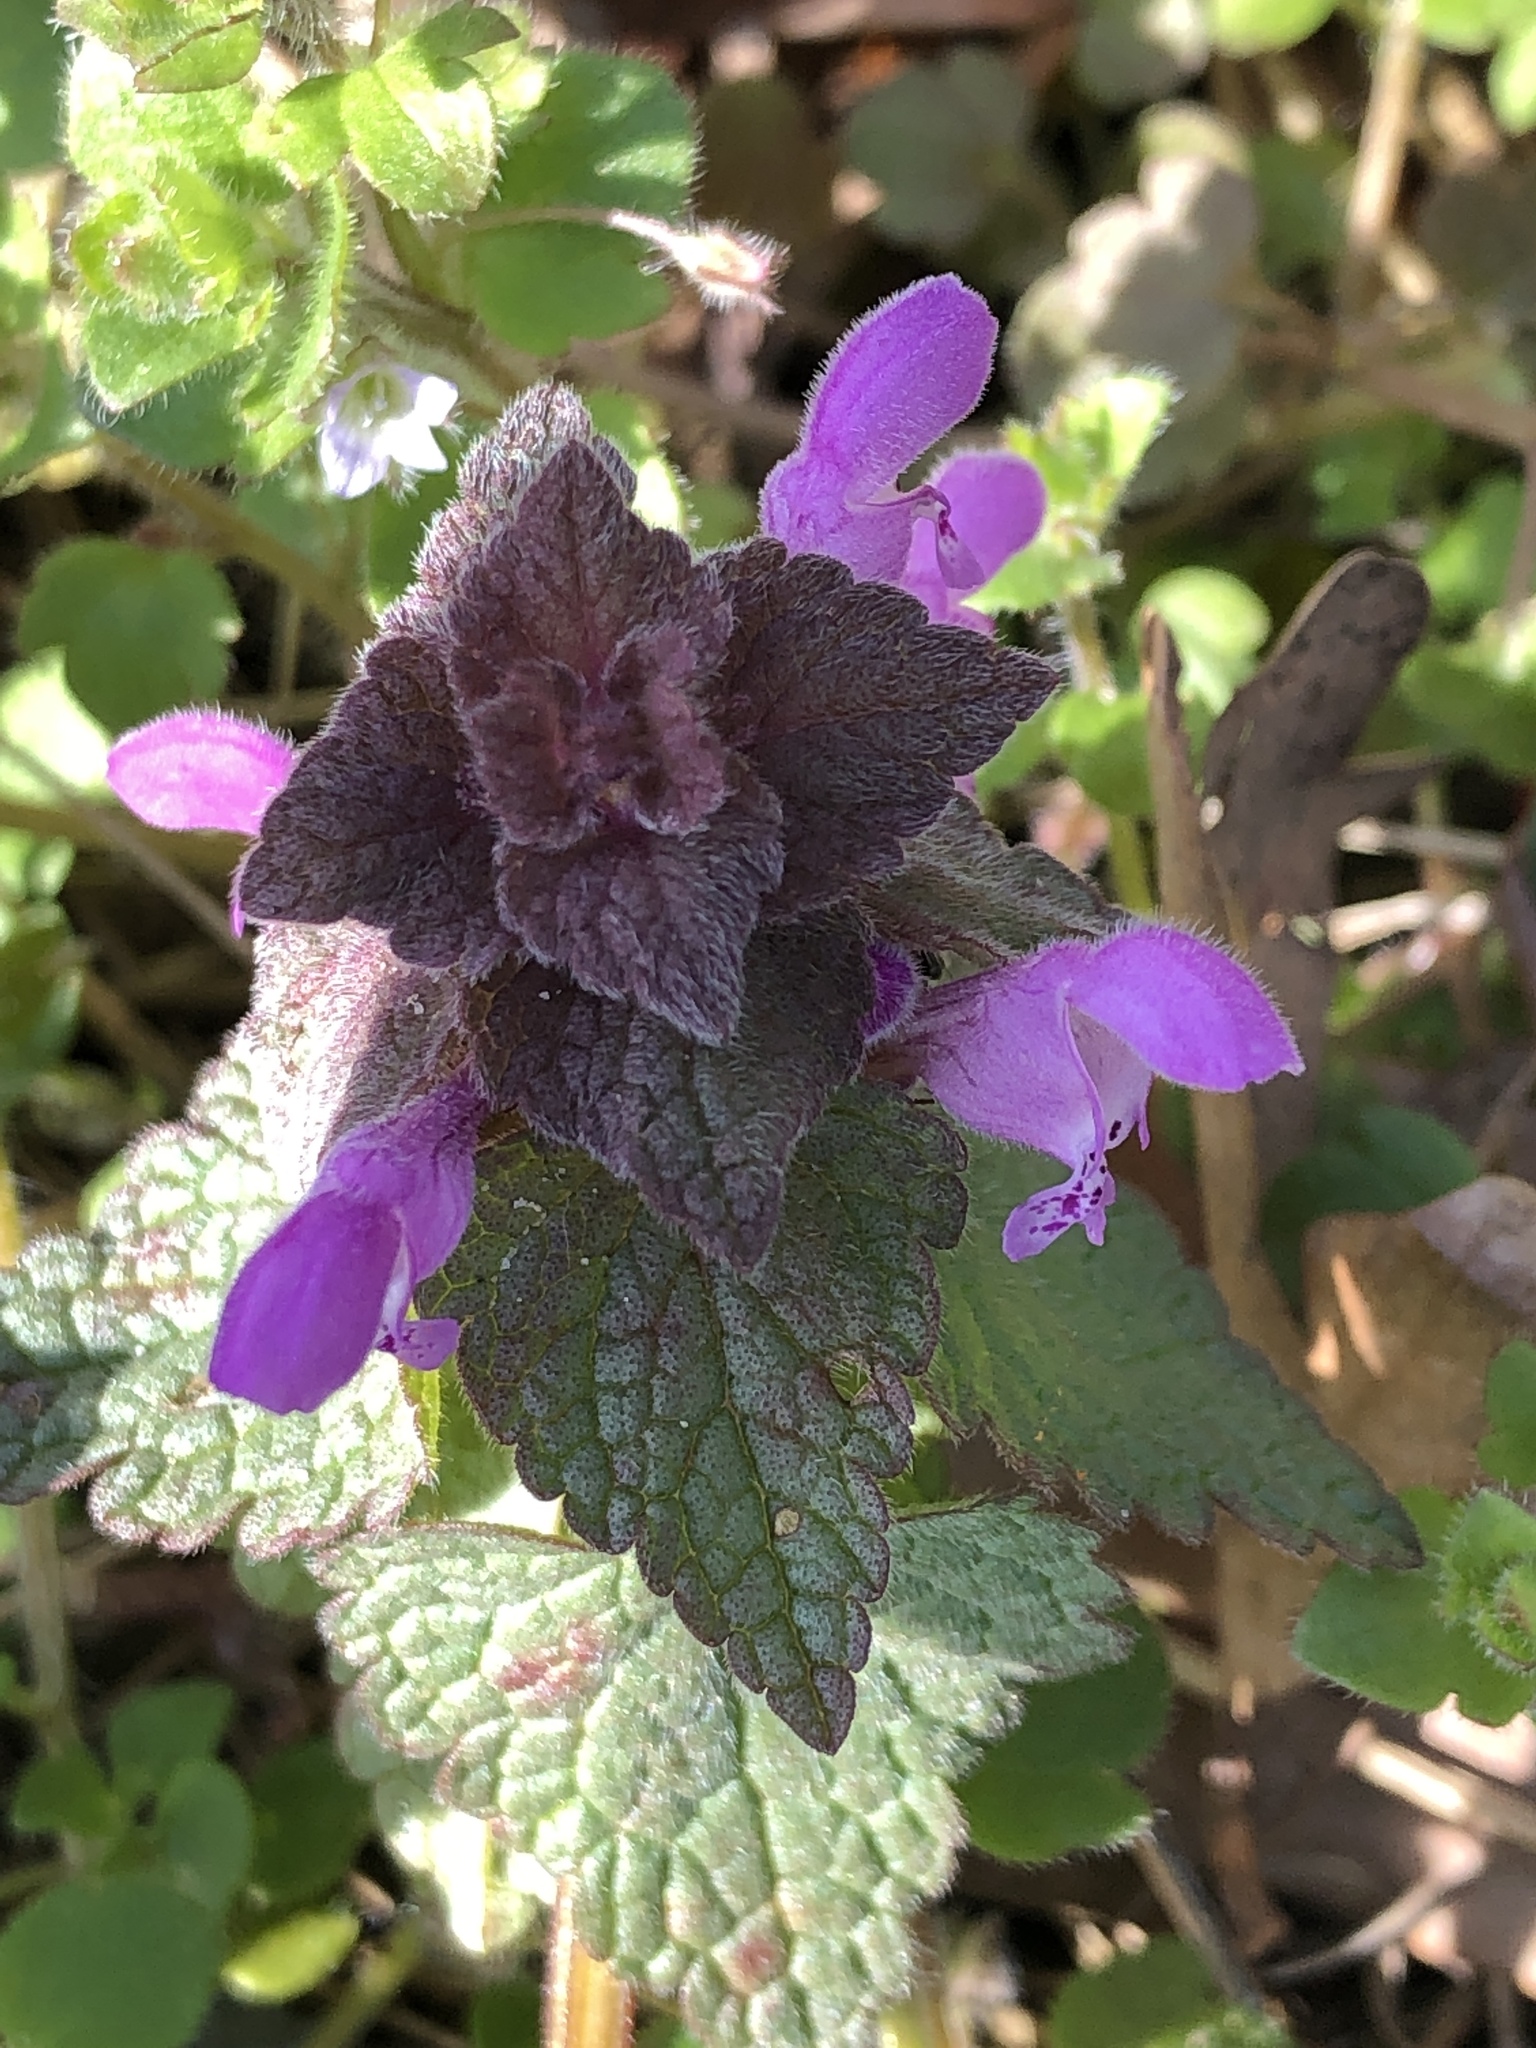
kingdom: Plantae
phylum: Tracheophyta
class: Magnoliopsida
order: Lamiales
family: Lamiaceae
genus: Lamium
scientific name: Lamium purpureum
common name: Red dead-nettle
